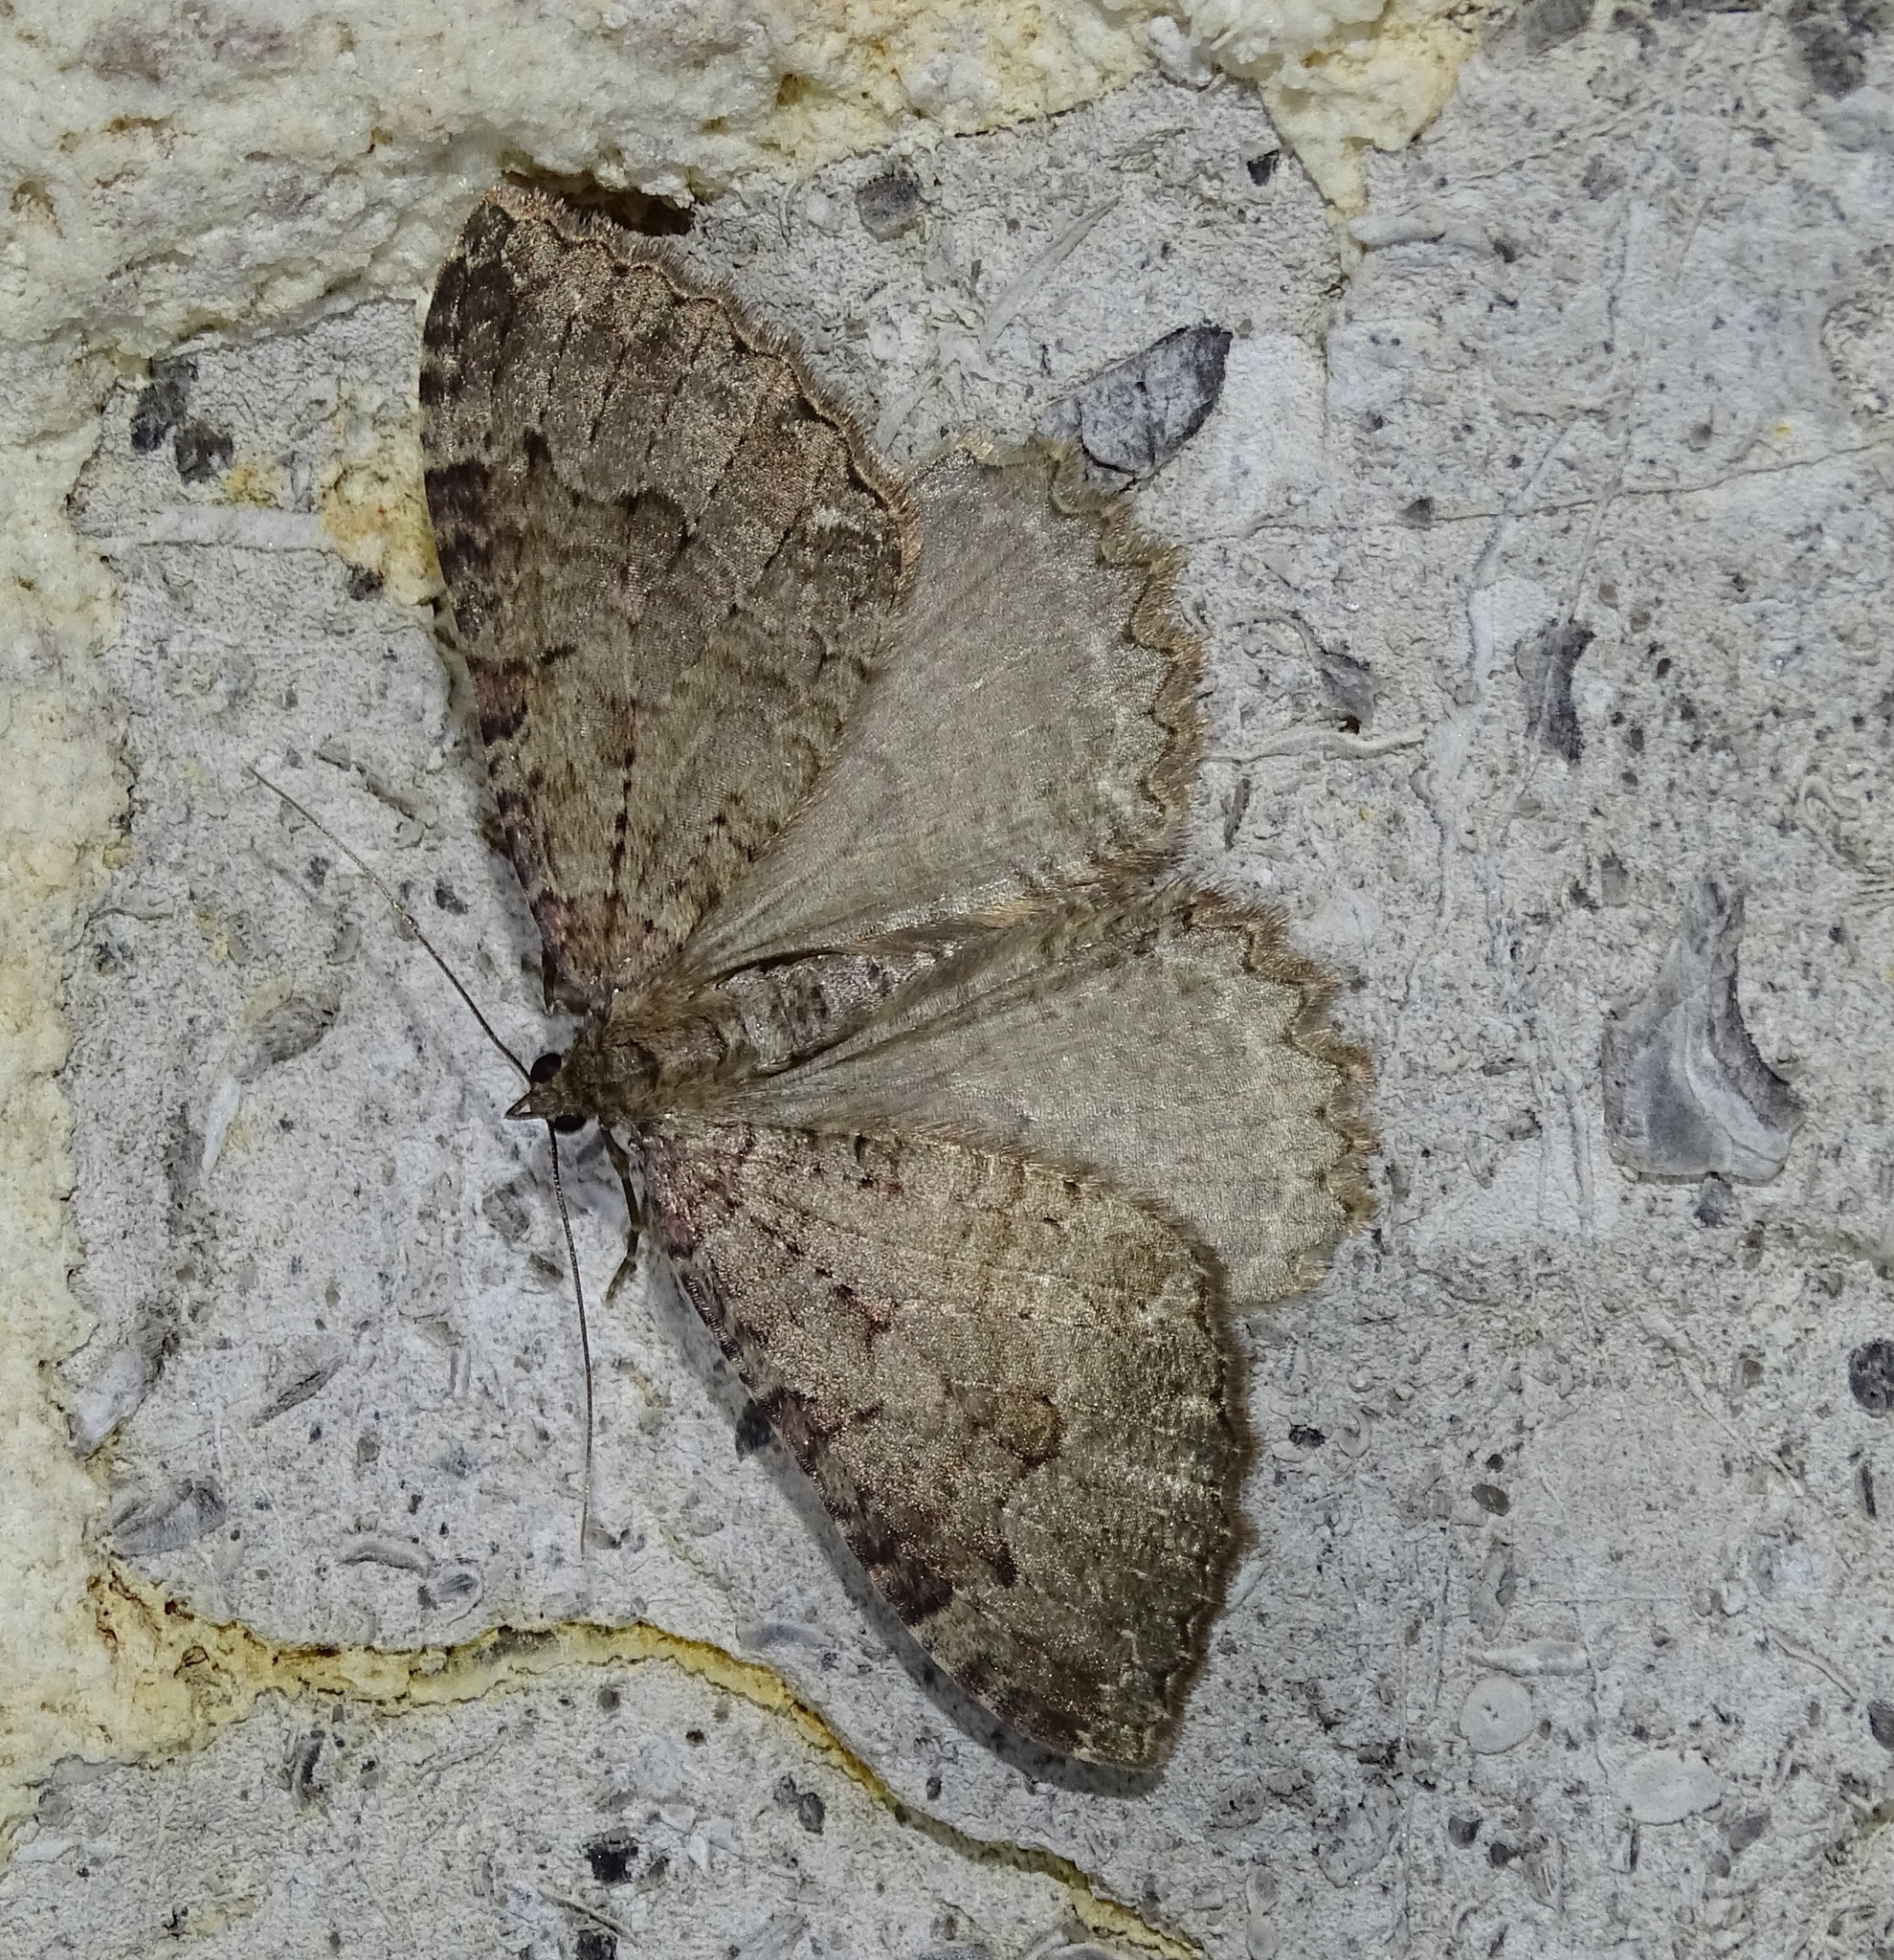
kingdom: Animalia
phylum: Arthropoda
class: Insecta
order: Lepidoptera
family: Geometridae
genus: Triphosa
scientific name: Triphosa dubitata
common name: Tissue
